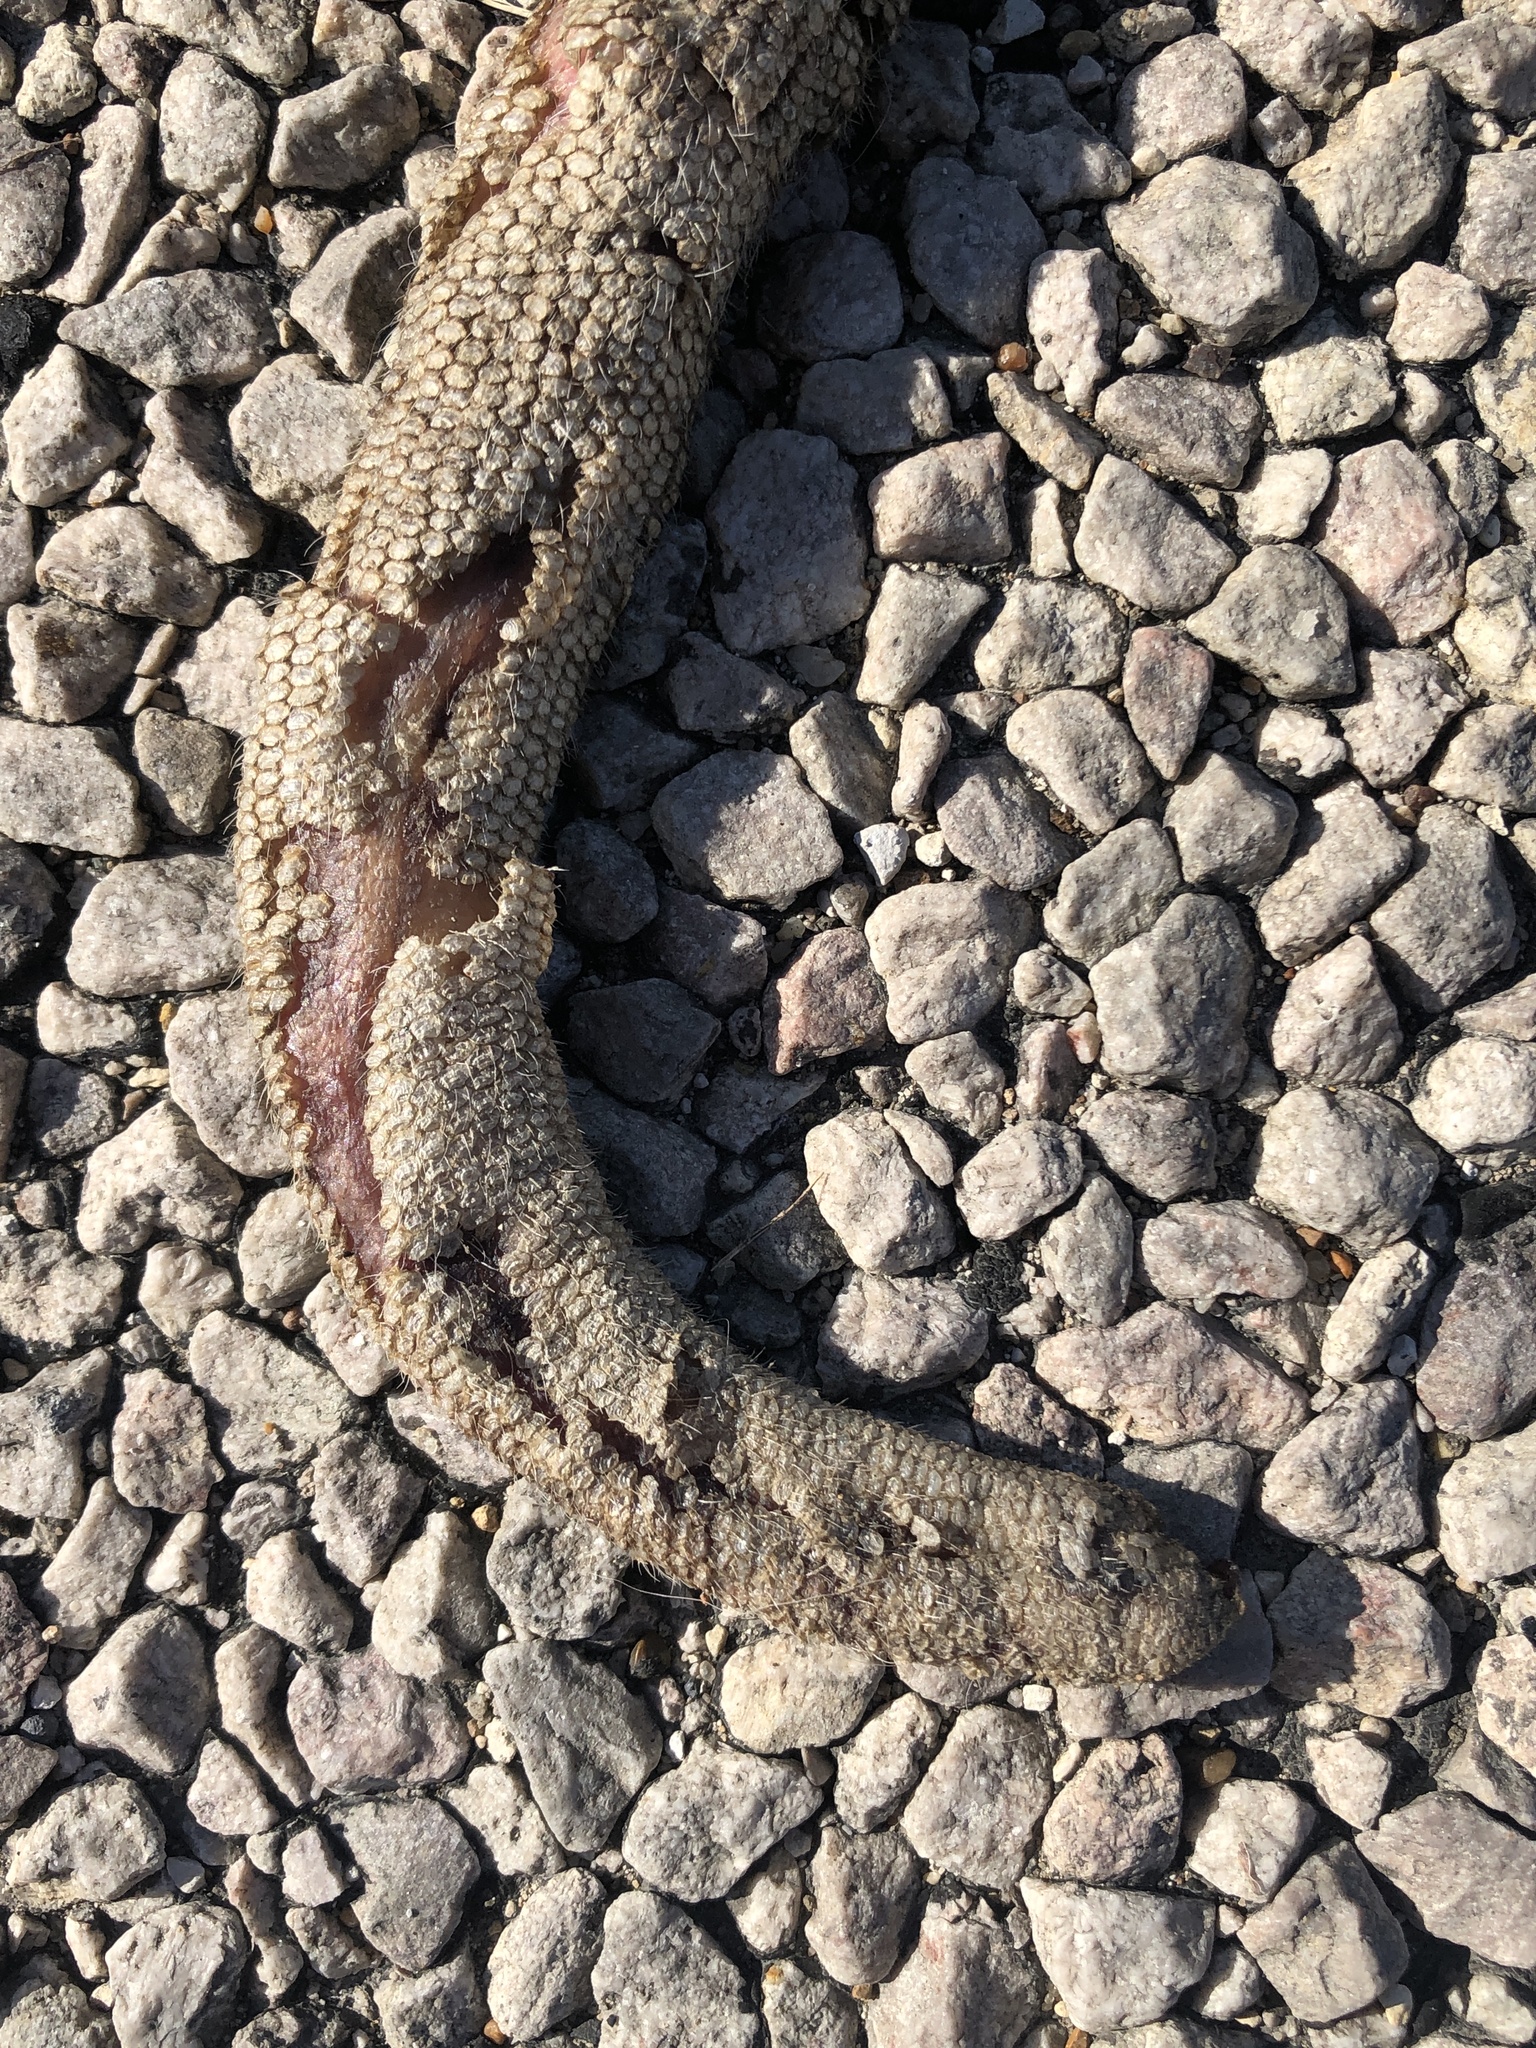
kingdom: Animalia
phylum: Chordata
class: Mammalia
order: Didelphimorphia
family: Didelphidae
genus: Didelphis
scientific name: Didelphis virginiana
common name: Virginia opossum
